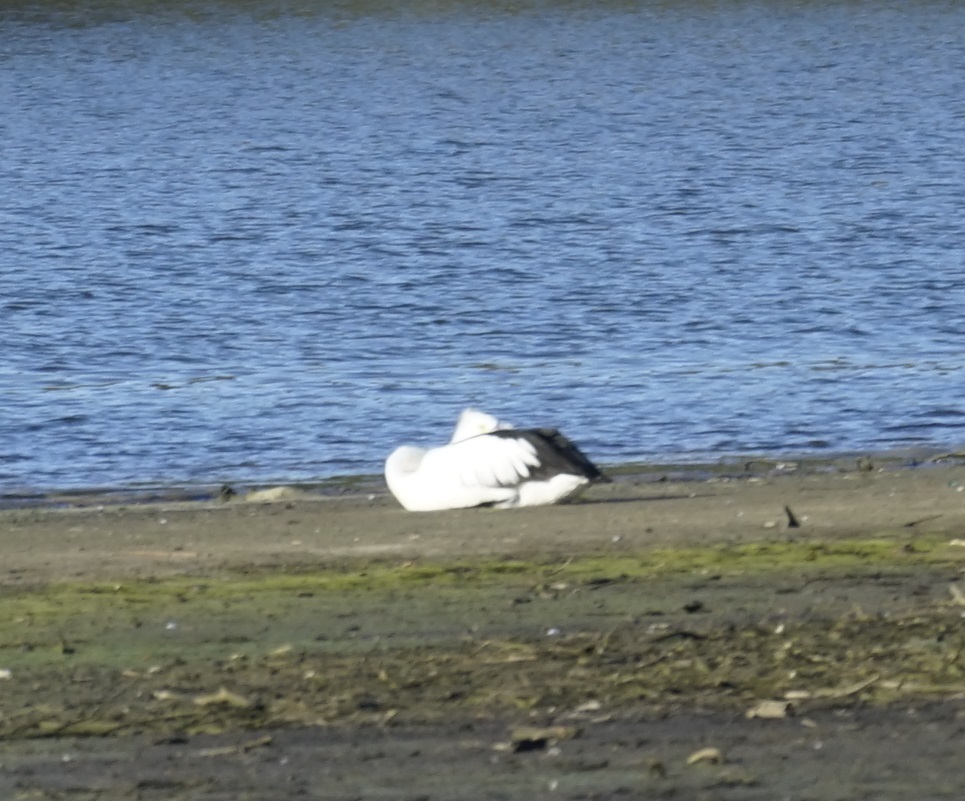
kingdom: Animalia
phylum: Chordata
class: Aves
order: Pelecaniformes
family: Pelecanidae
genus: Pelecanus
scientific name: Pelecanus conspicillatus
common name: Australian pelican
